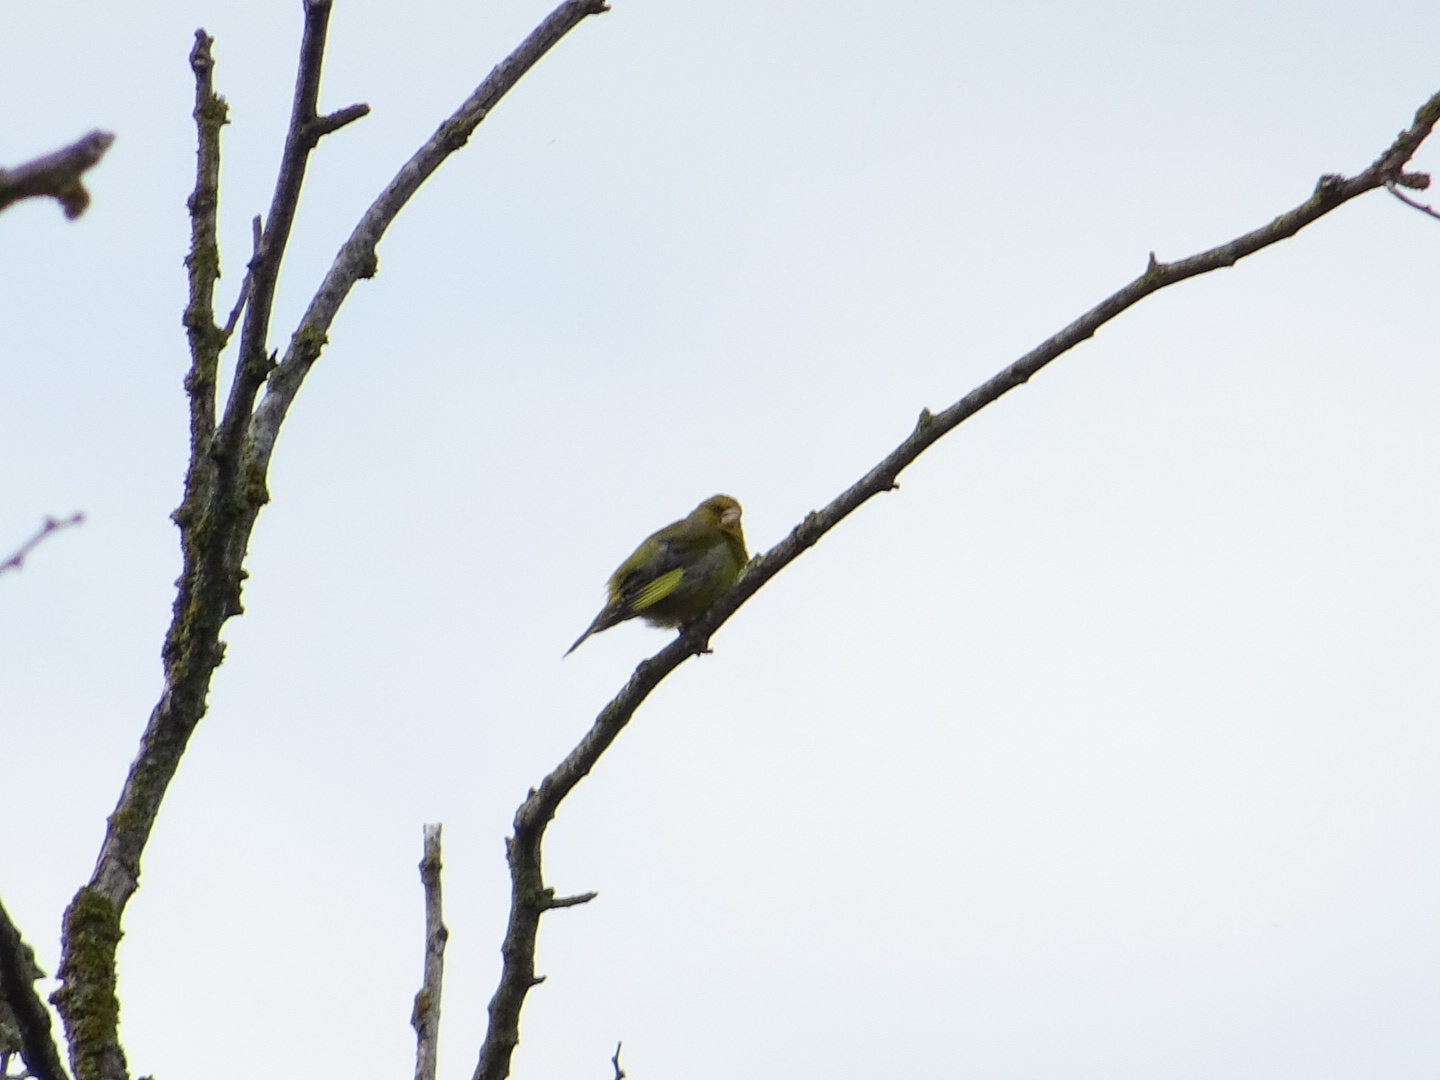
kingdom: Plantae
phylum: Tracheophyta
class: Liliopsida
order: Poales
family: Poaceae
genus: Chloris
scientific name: Chloris chloris
